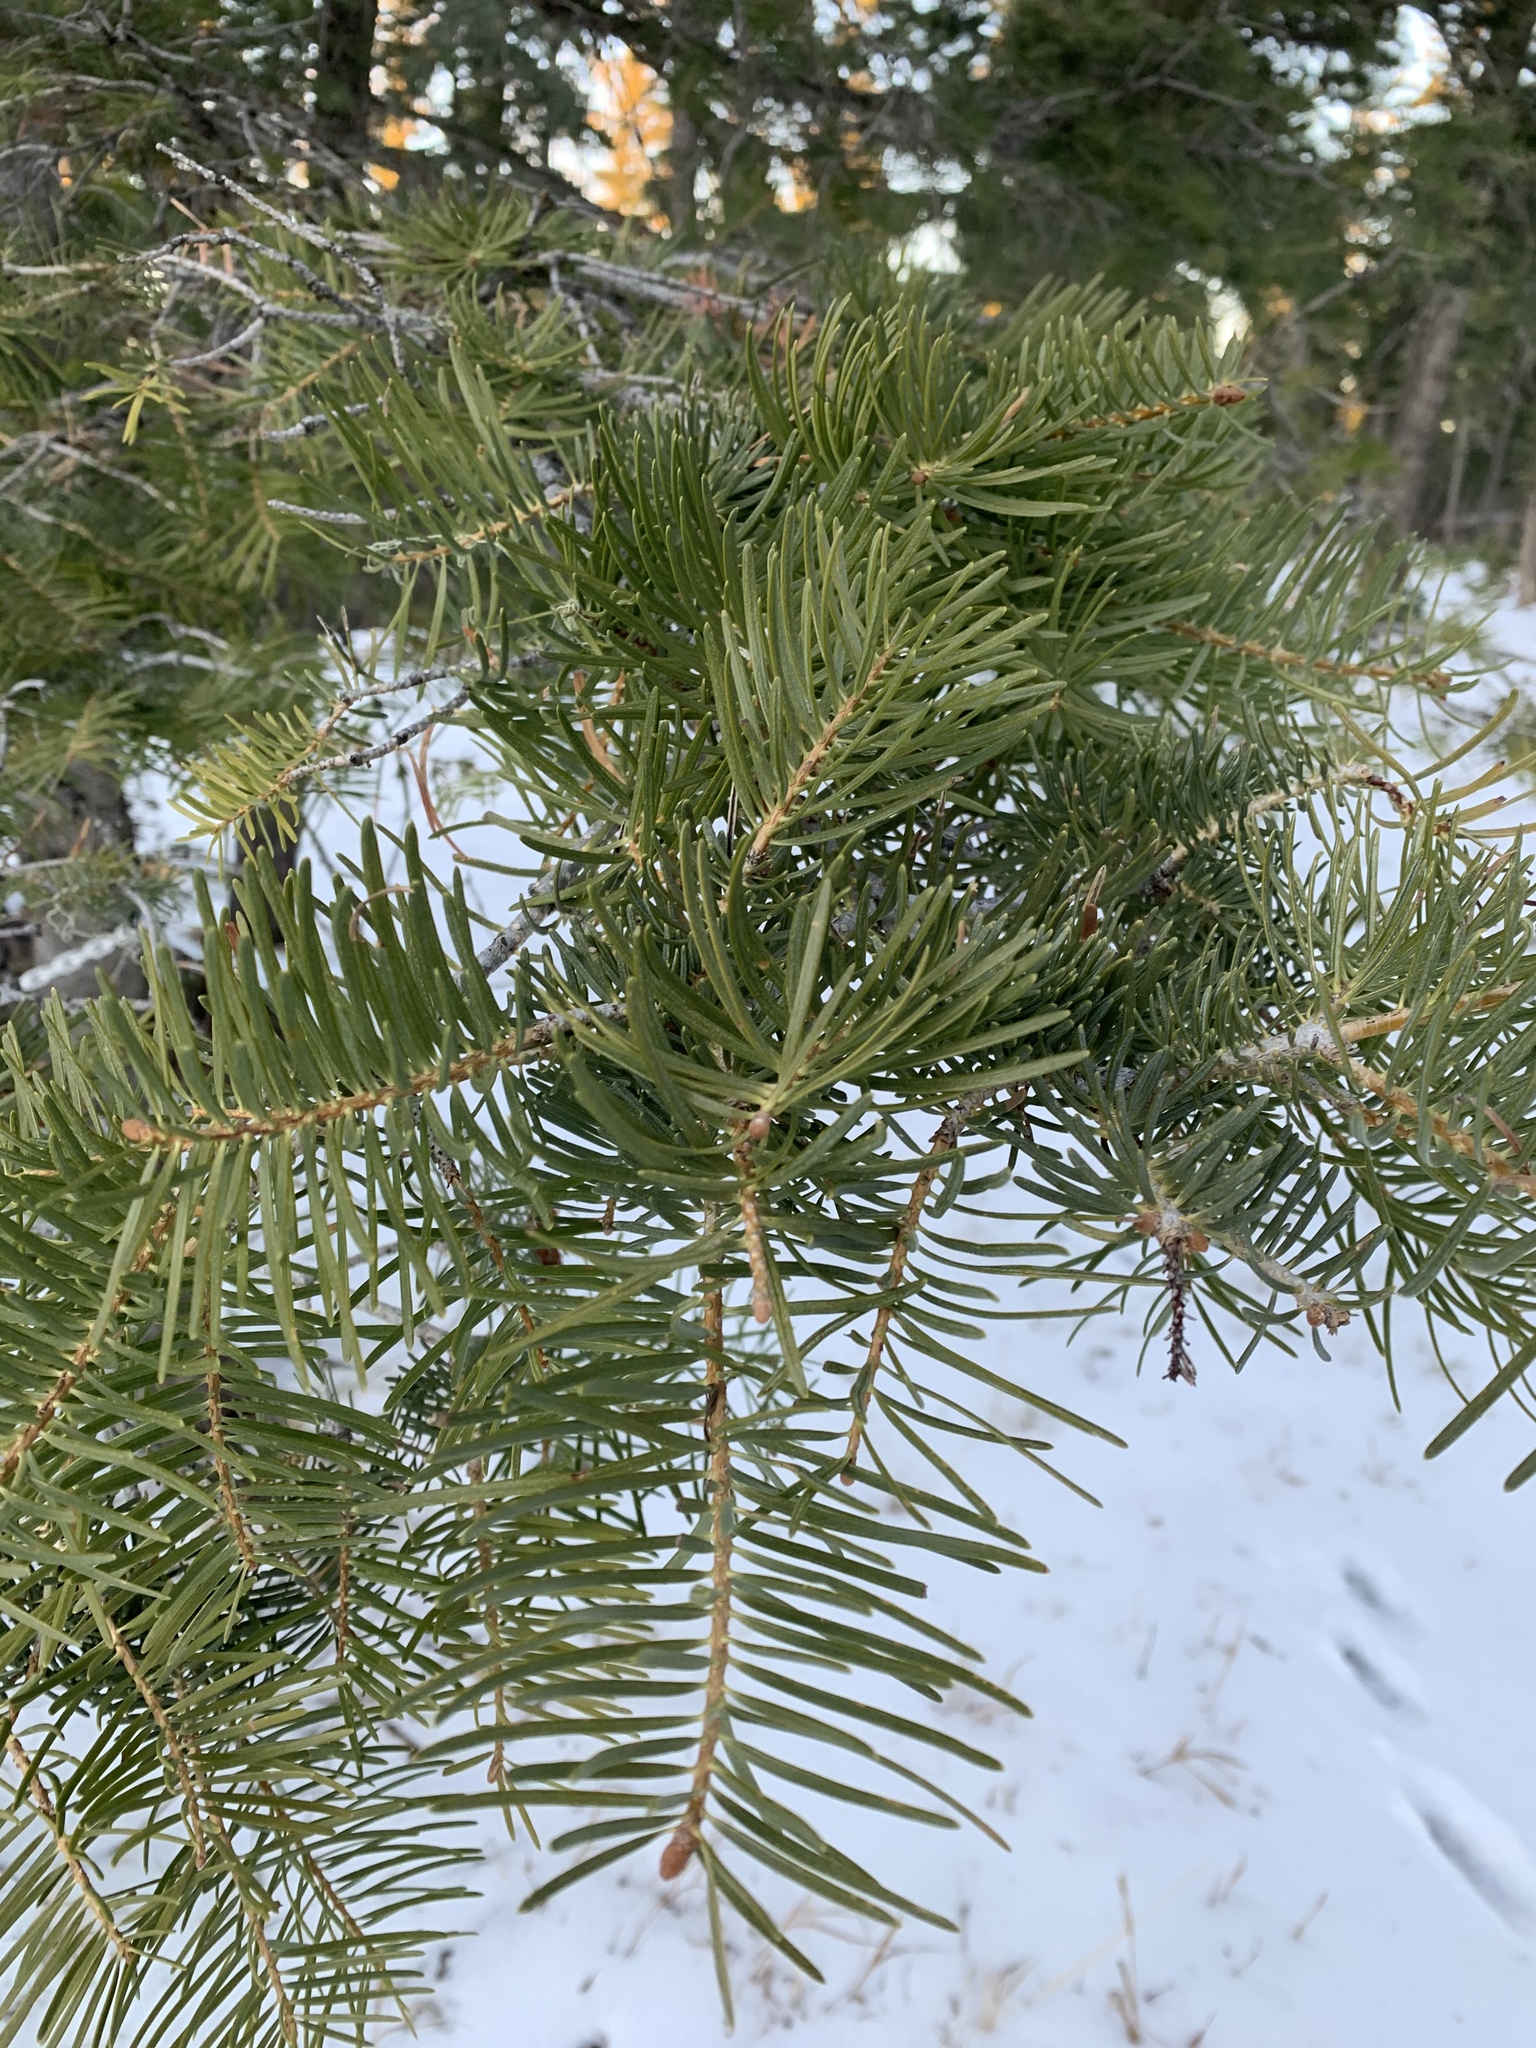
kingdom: Plantae
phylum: Tracheophyta
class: Pinopsida
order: Pinales
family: Pinaceae
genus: Abies
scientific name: Abies concolor
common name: Colorado fir
